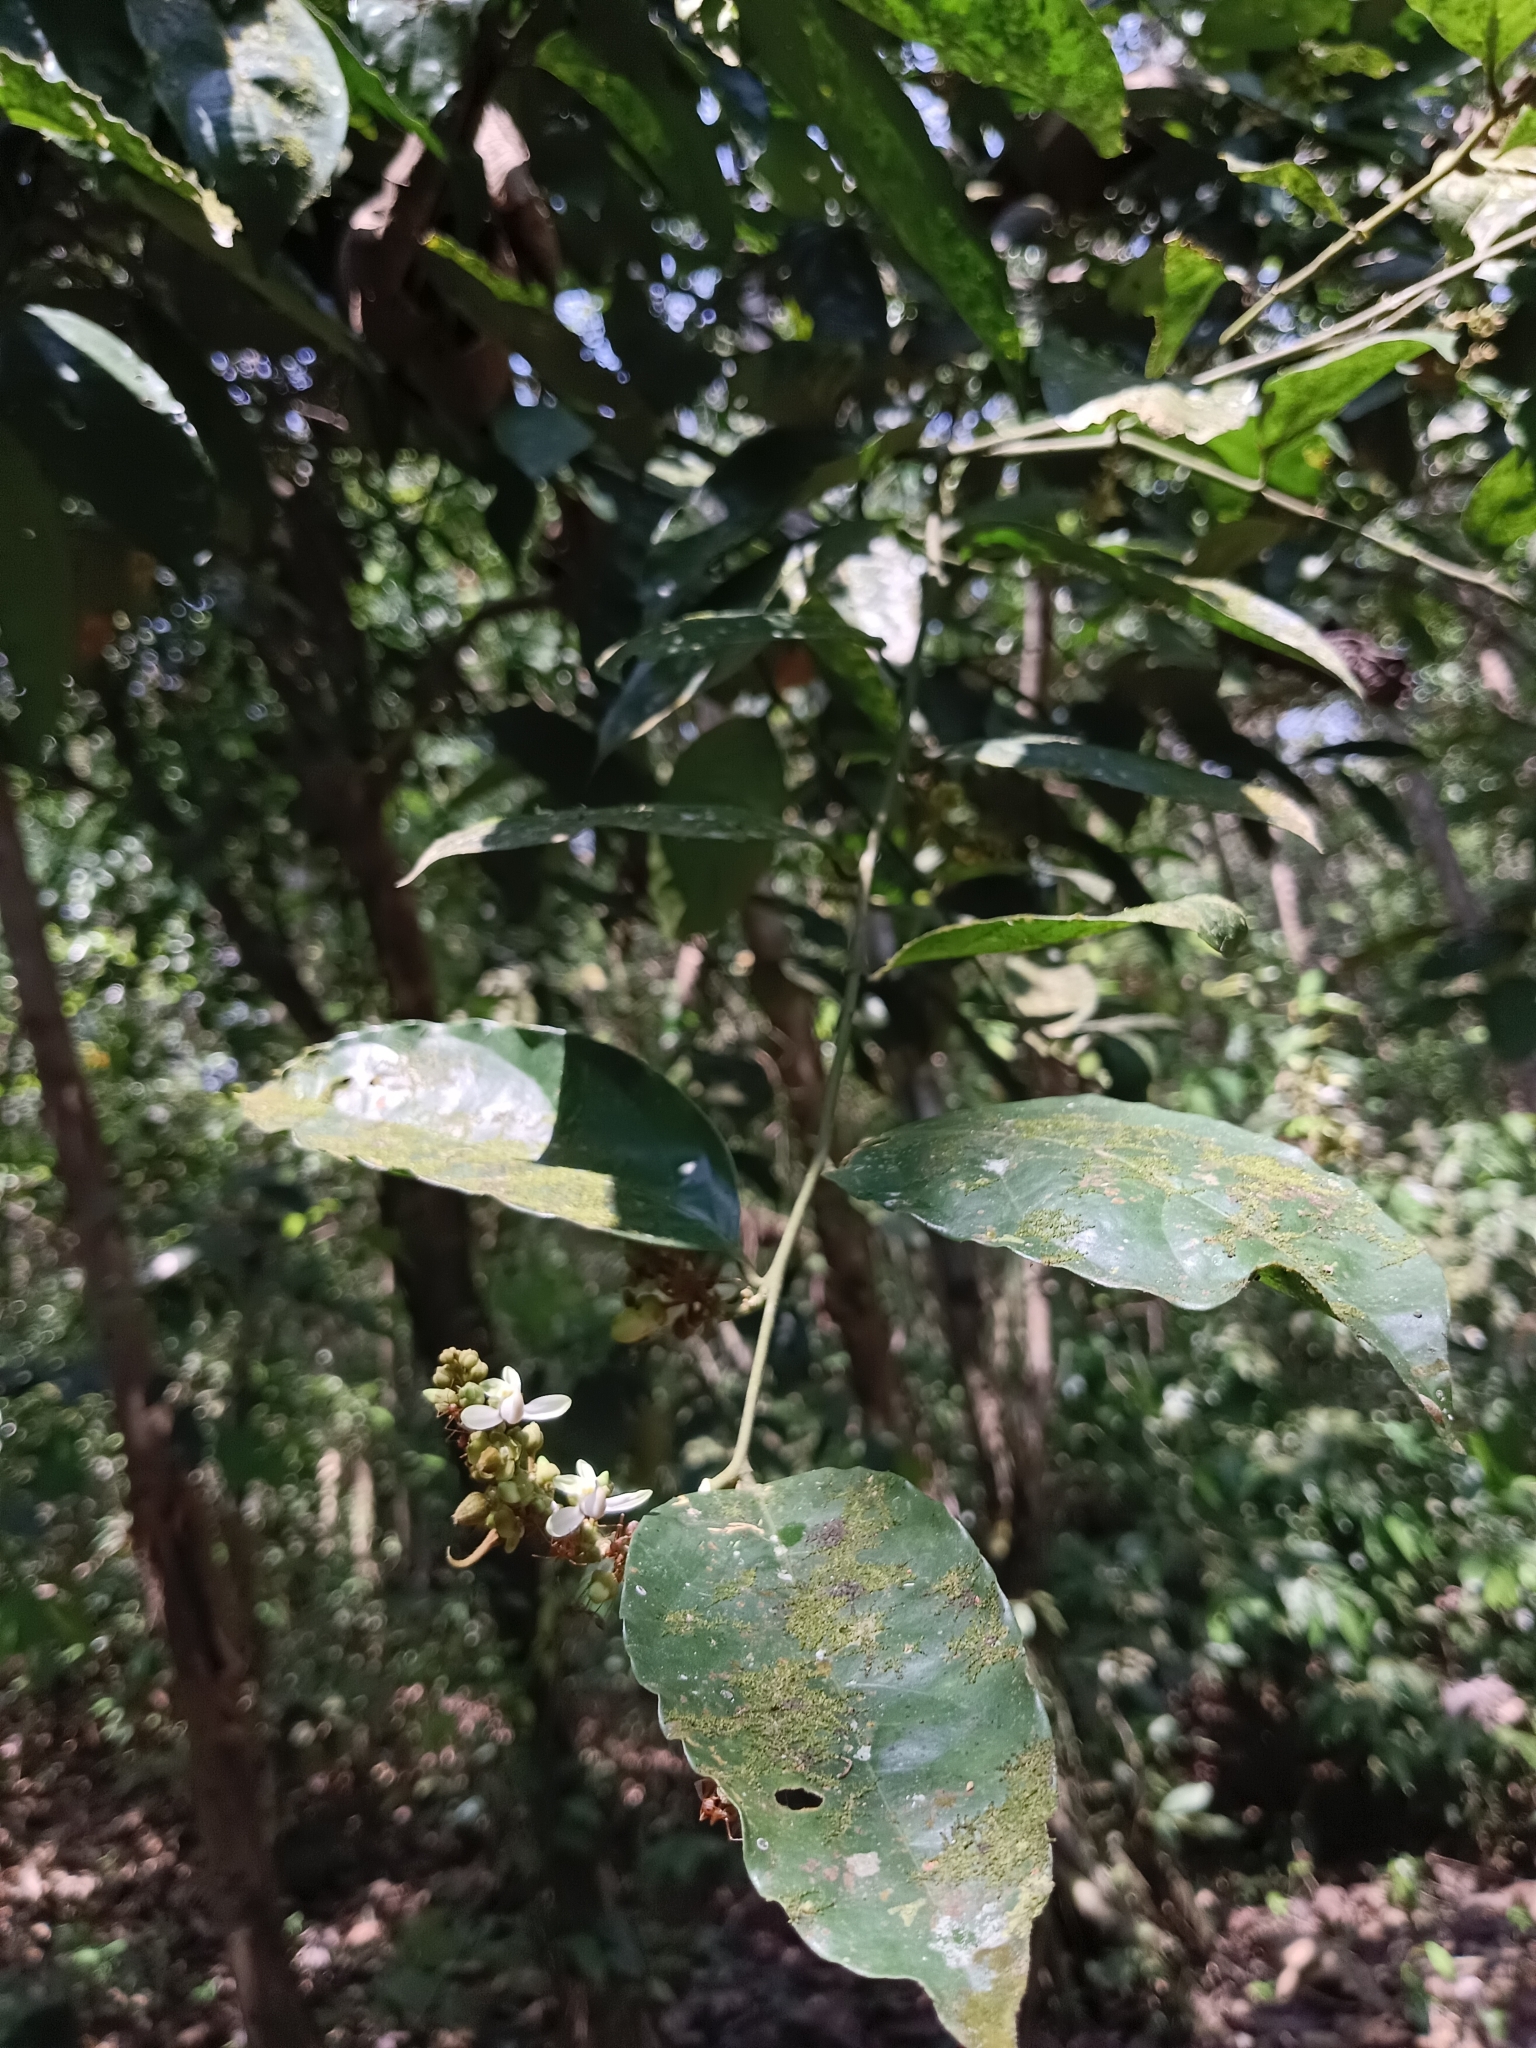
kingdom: Plantae
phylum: Tracheophyta
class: Magnoliopsida
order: Fabales
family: Polygalaceae
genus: Xanthophyllum
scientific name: Xanthophyllum flavescens
